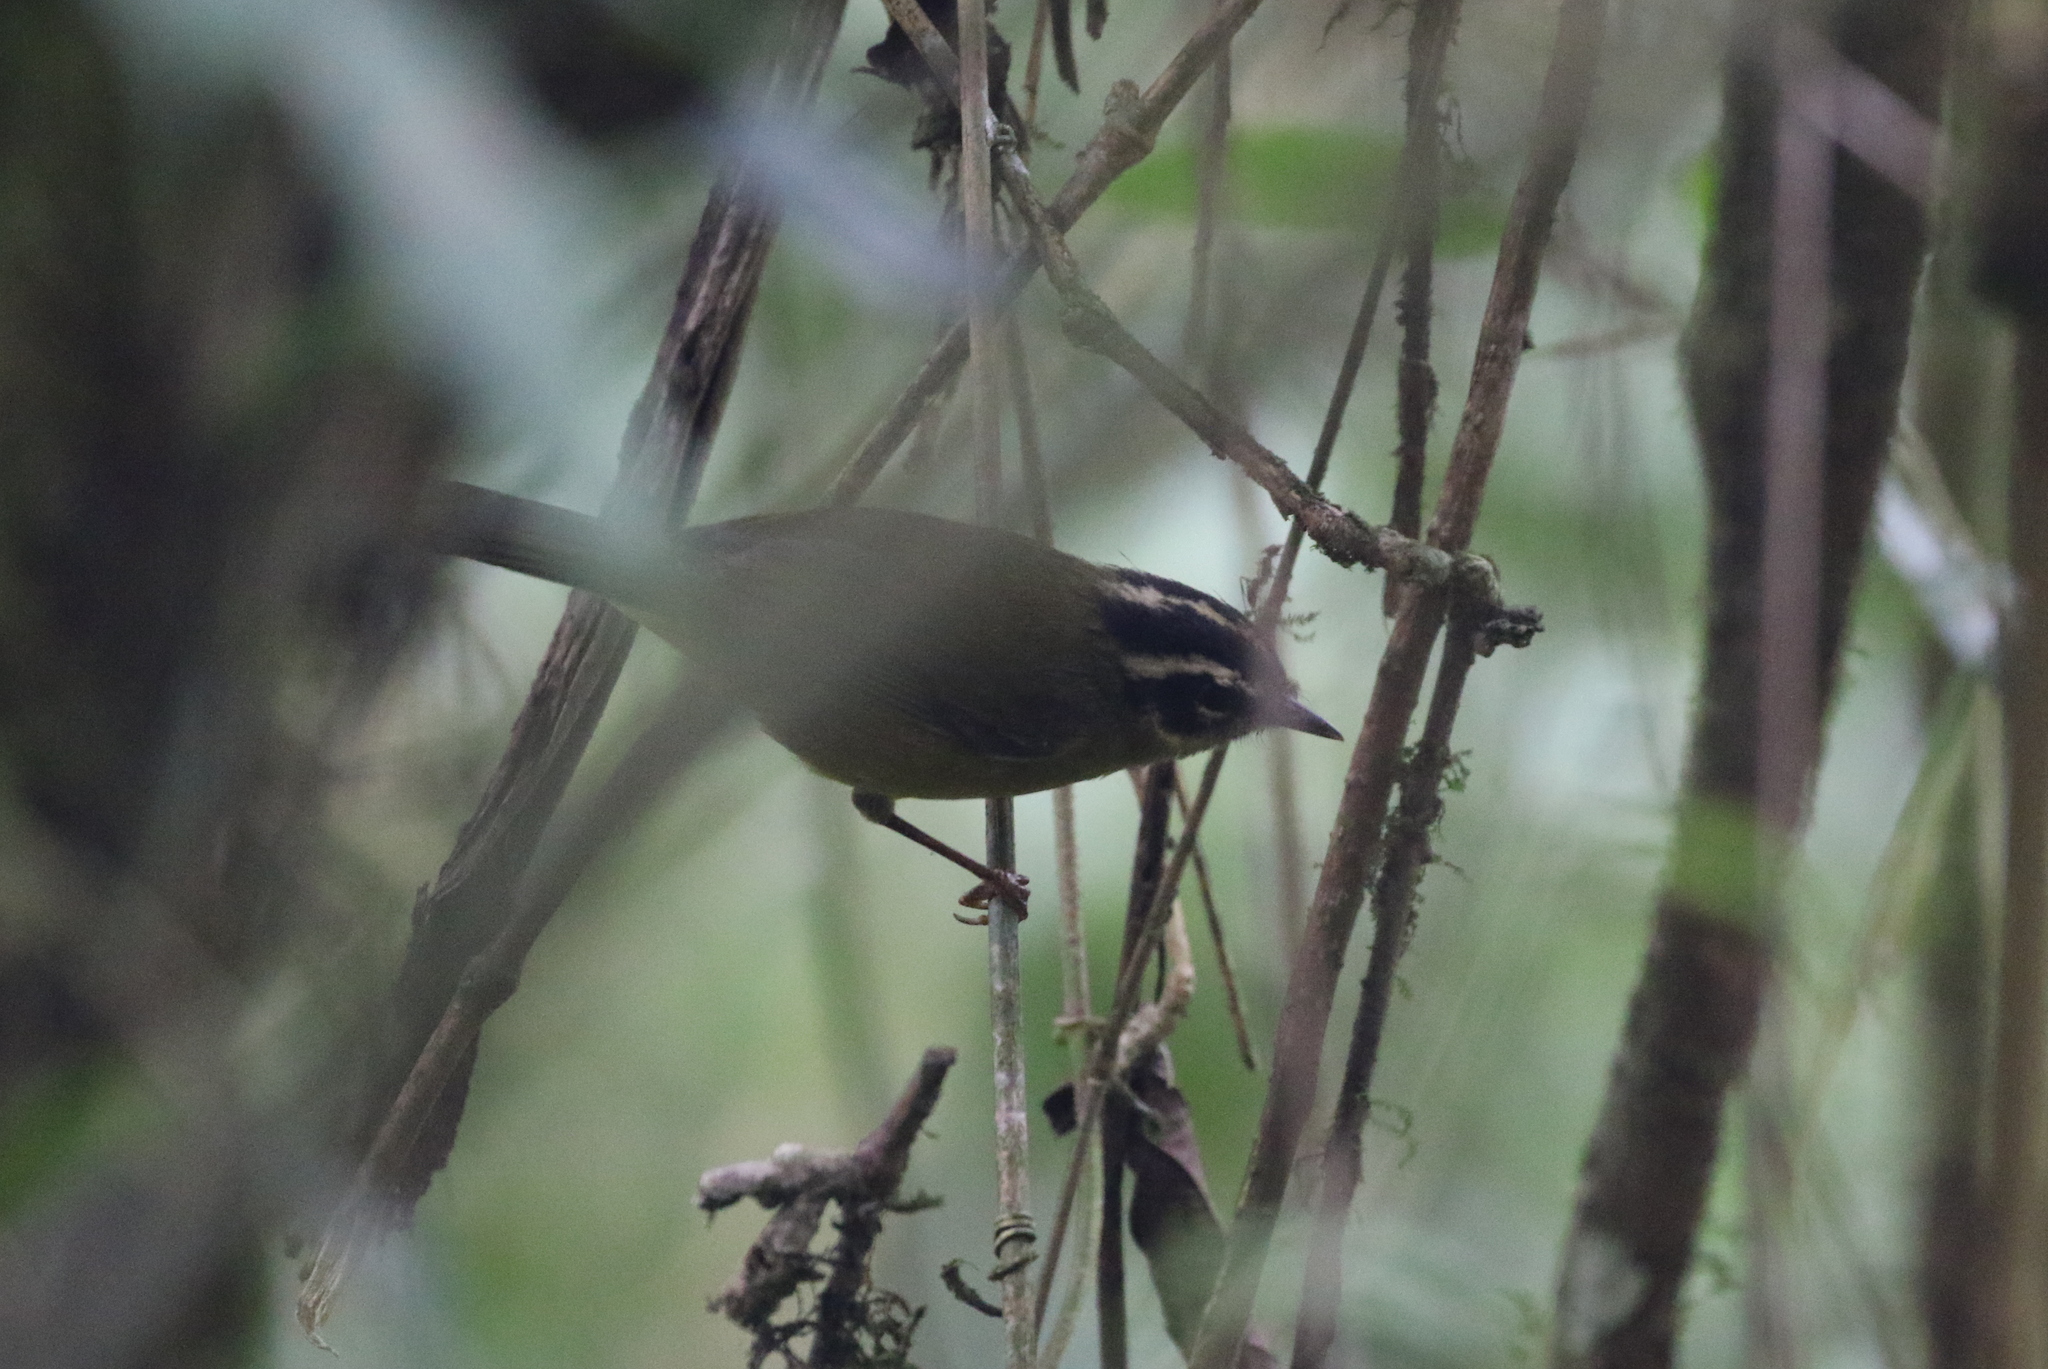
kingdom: Animalia
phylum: Chordata
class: Aves
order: Passeriformes
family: Parulidae
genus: Basileuterus
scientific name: Basileuterus tristriatus
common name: Three-striped warbler
